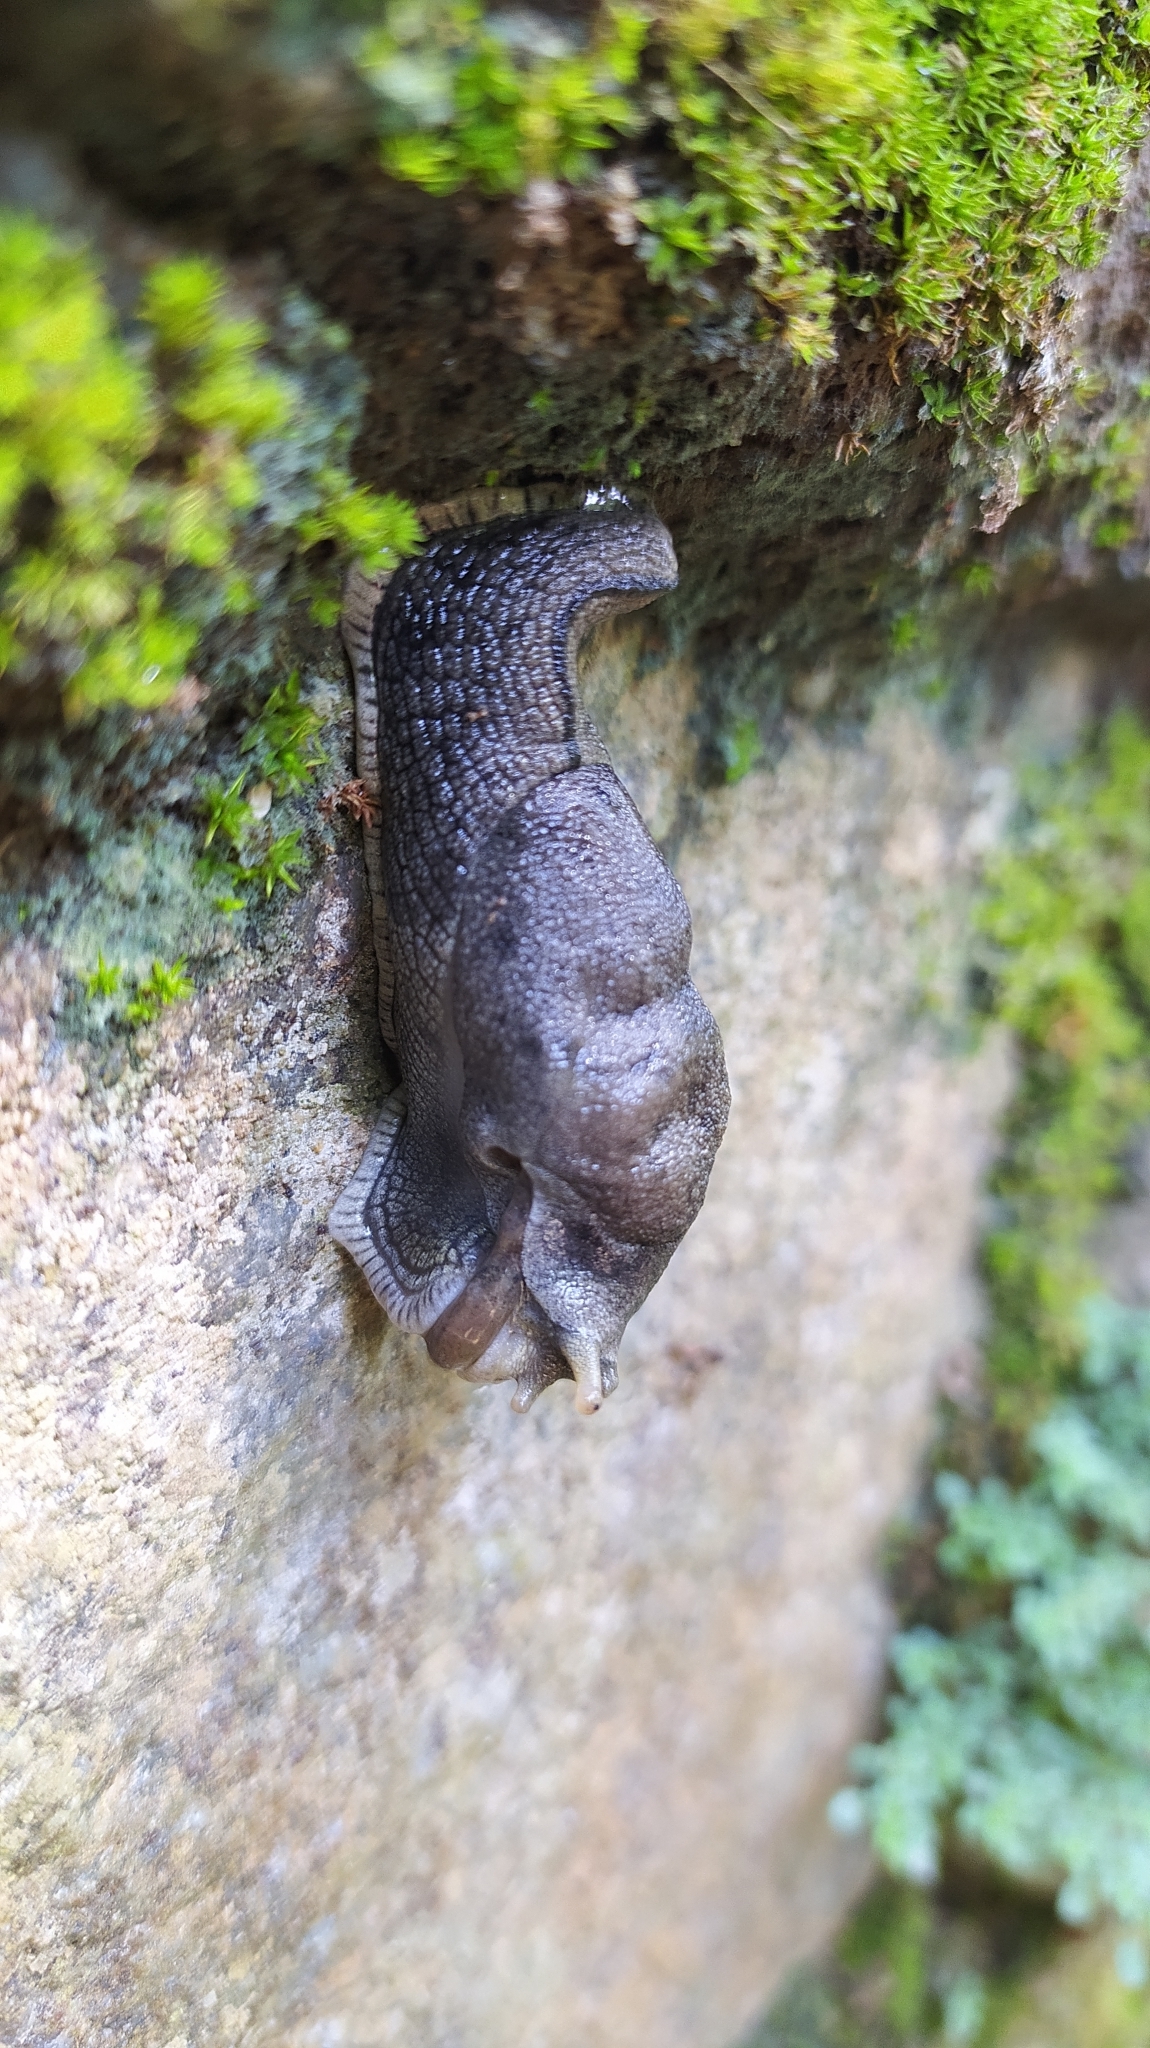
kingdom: Animalia
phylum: Mollusca
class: Gastropoda
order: Stylommatophora
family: Ariophantidae
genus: Mariaella
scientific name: Mariaella dussumieri
